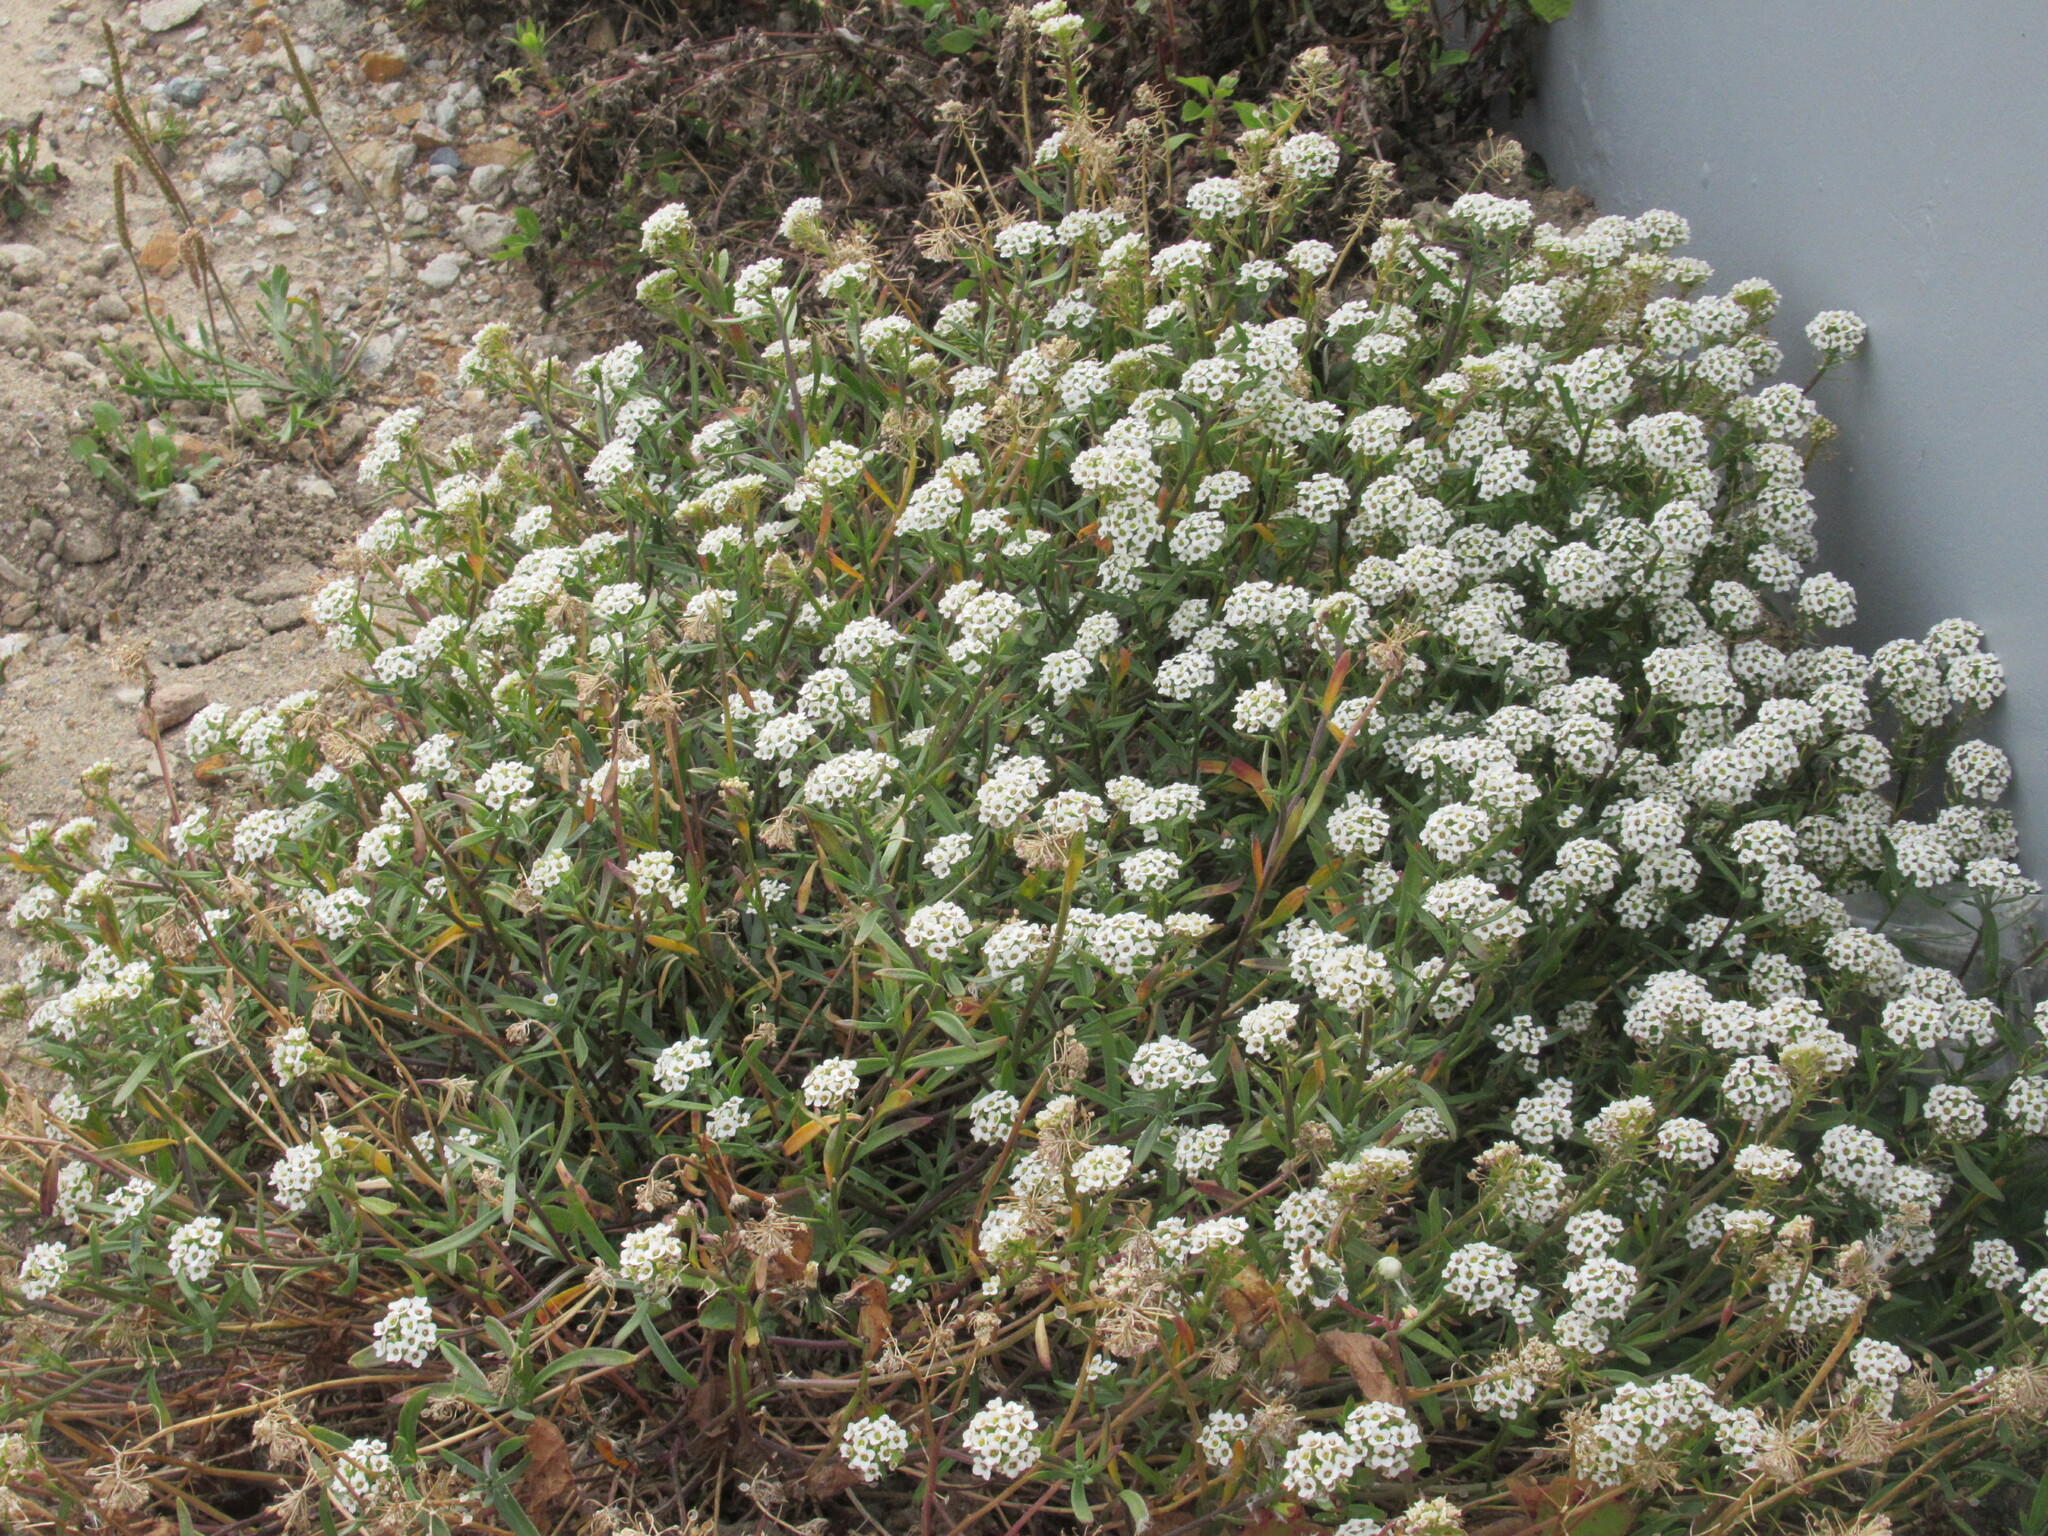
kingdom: Plantae
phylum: Tracheophyta
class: Magnoliopsida
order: Brassicales
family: Brassicaceae
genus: Lobularia
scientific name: Lobularia maritima
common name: Sweet alison
